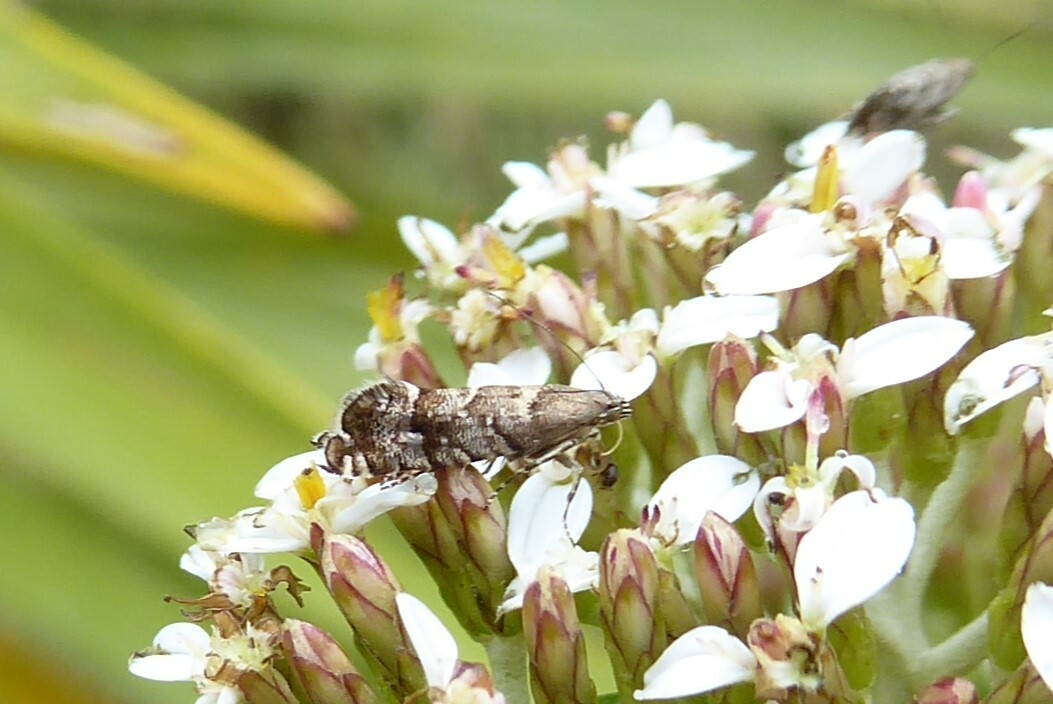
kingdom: Animalia
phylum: Arthropoda
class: Insecta
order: Lepidoptera
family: Glyphipterigidae
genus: Glyphipterix
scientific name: Glyphipterix nephoptera
